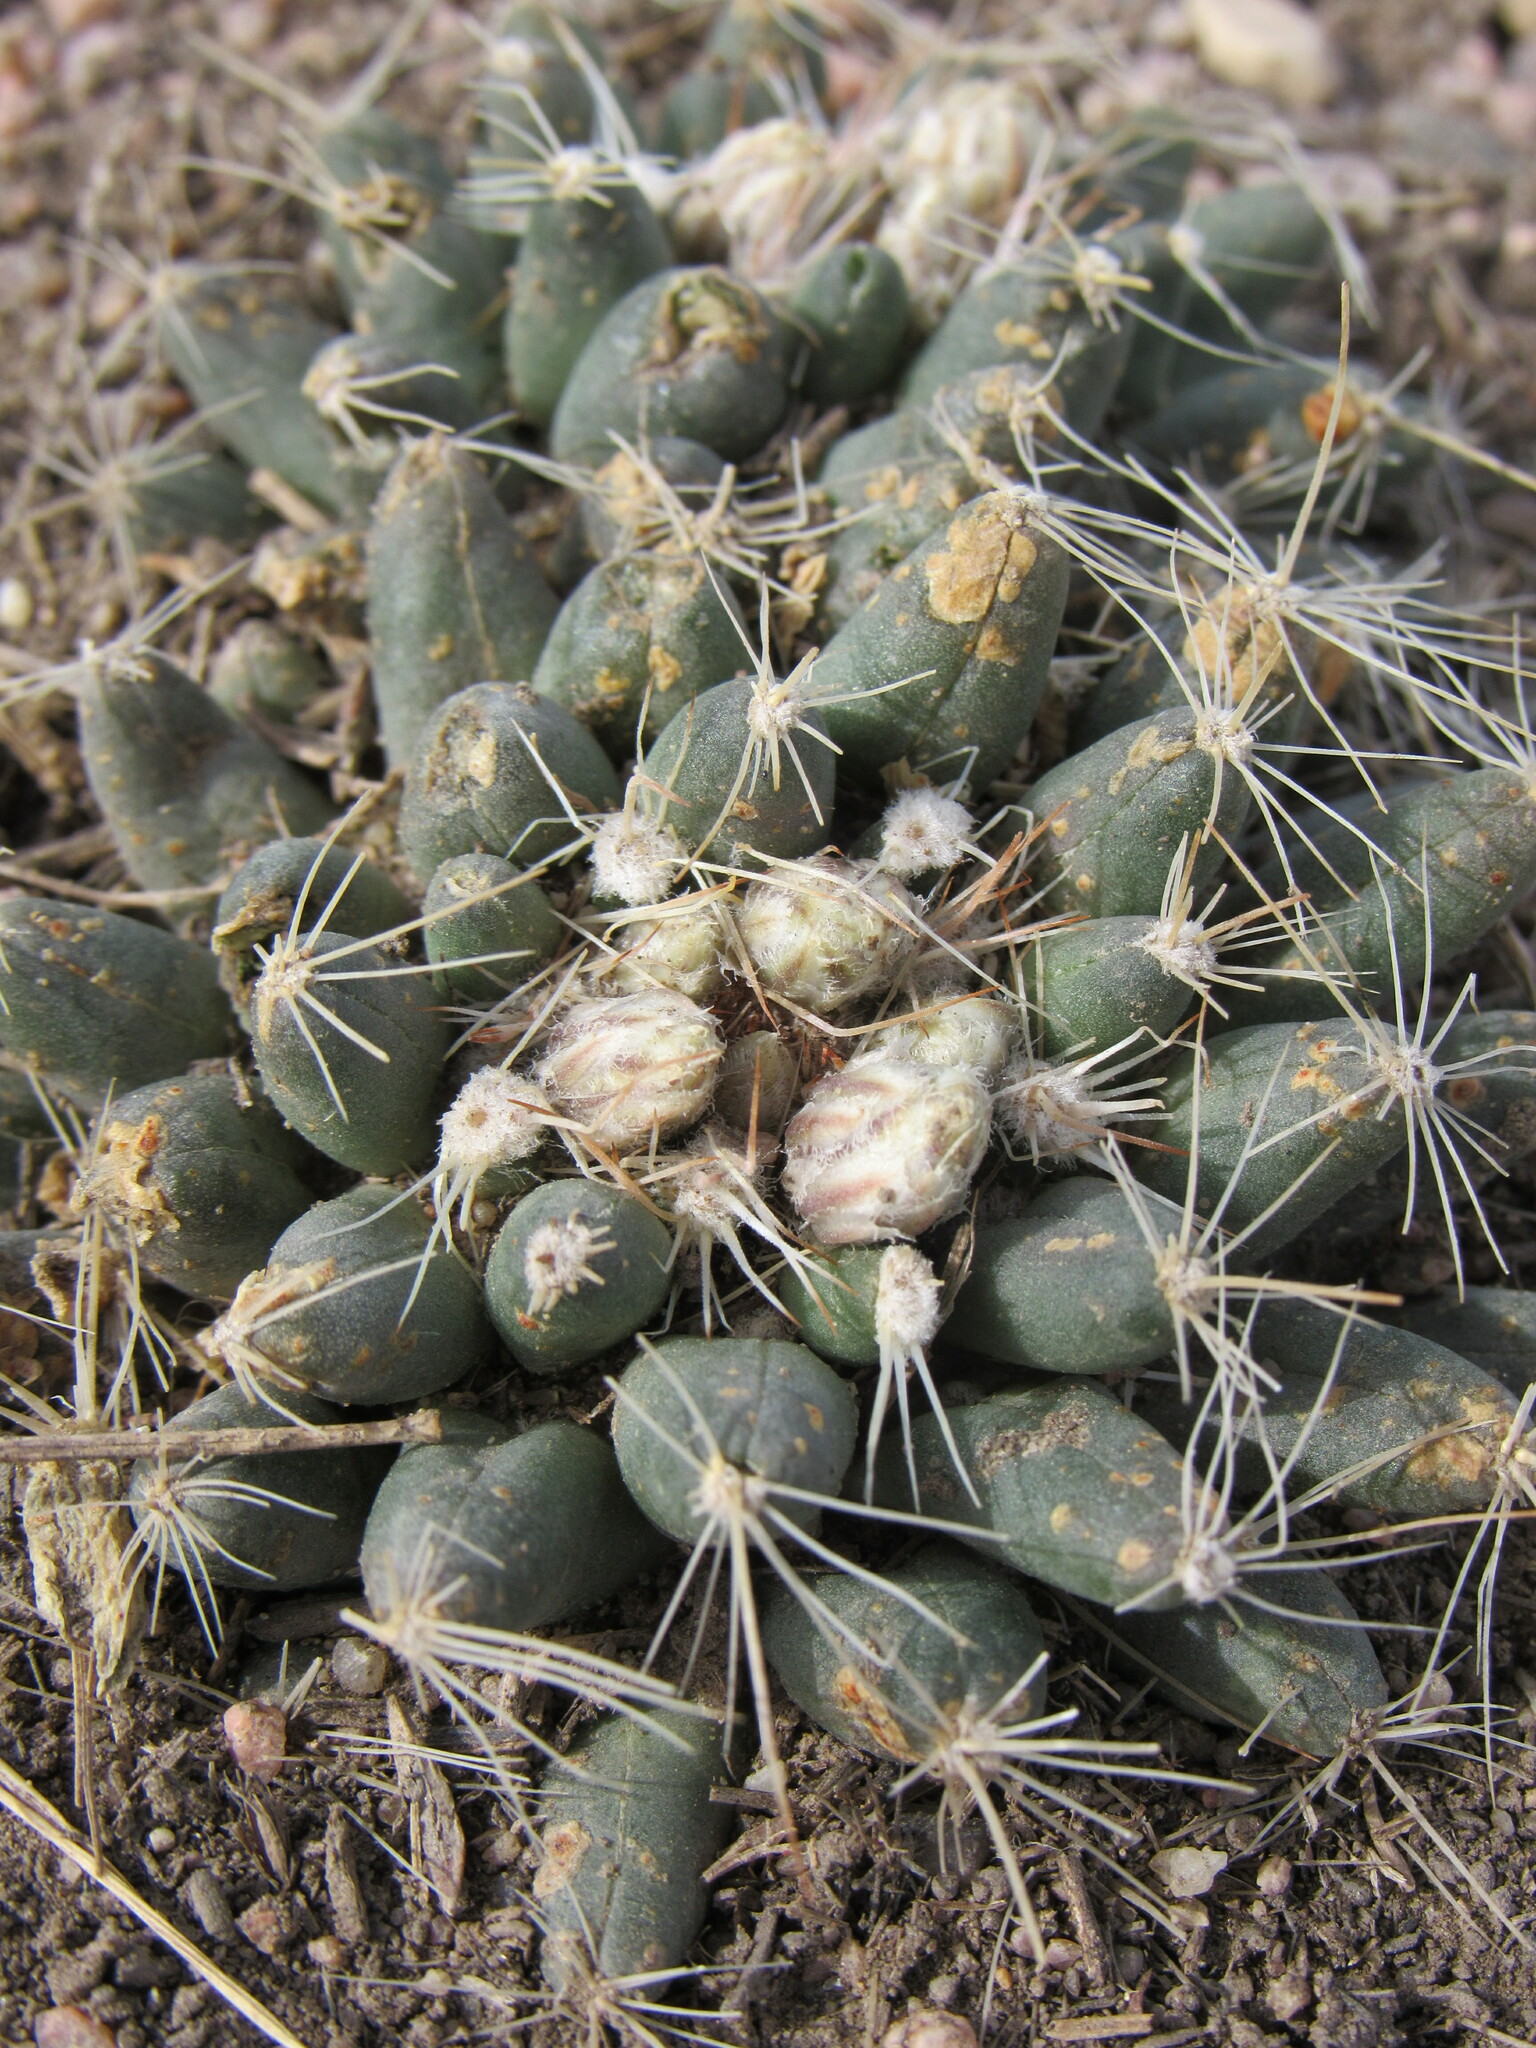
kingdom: Plantae
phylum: Tracheophyta
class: Magnoliopsida
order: Caryophyllales
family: Cactaceae
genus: Pelecyphora
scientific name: Pelecyphora missouriensis
